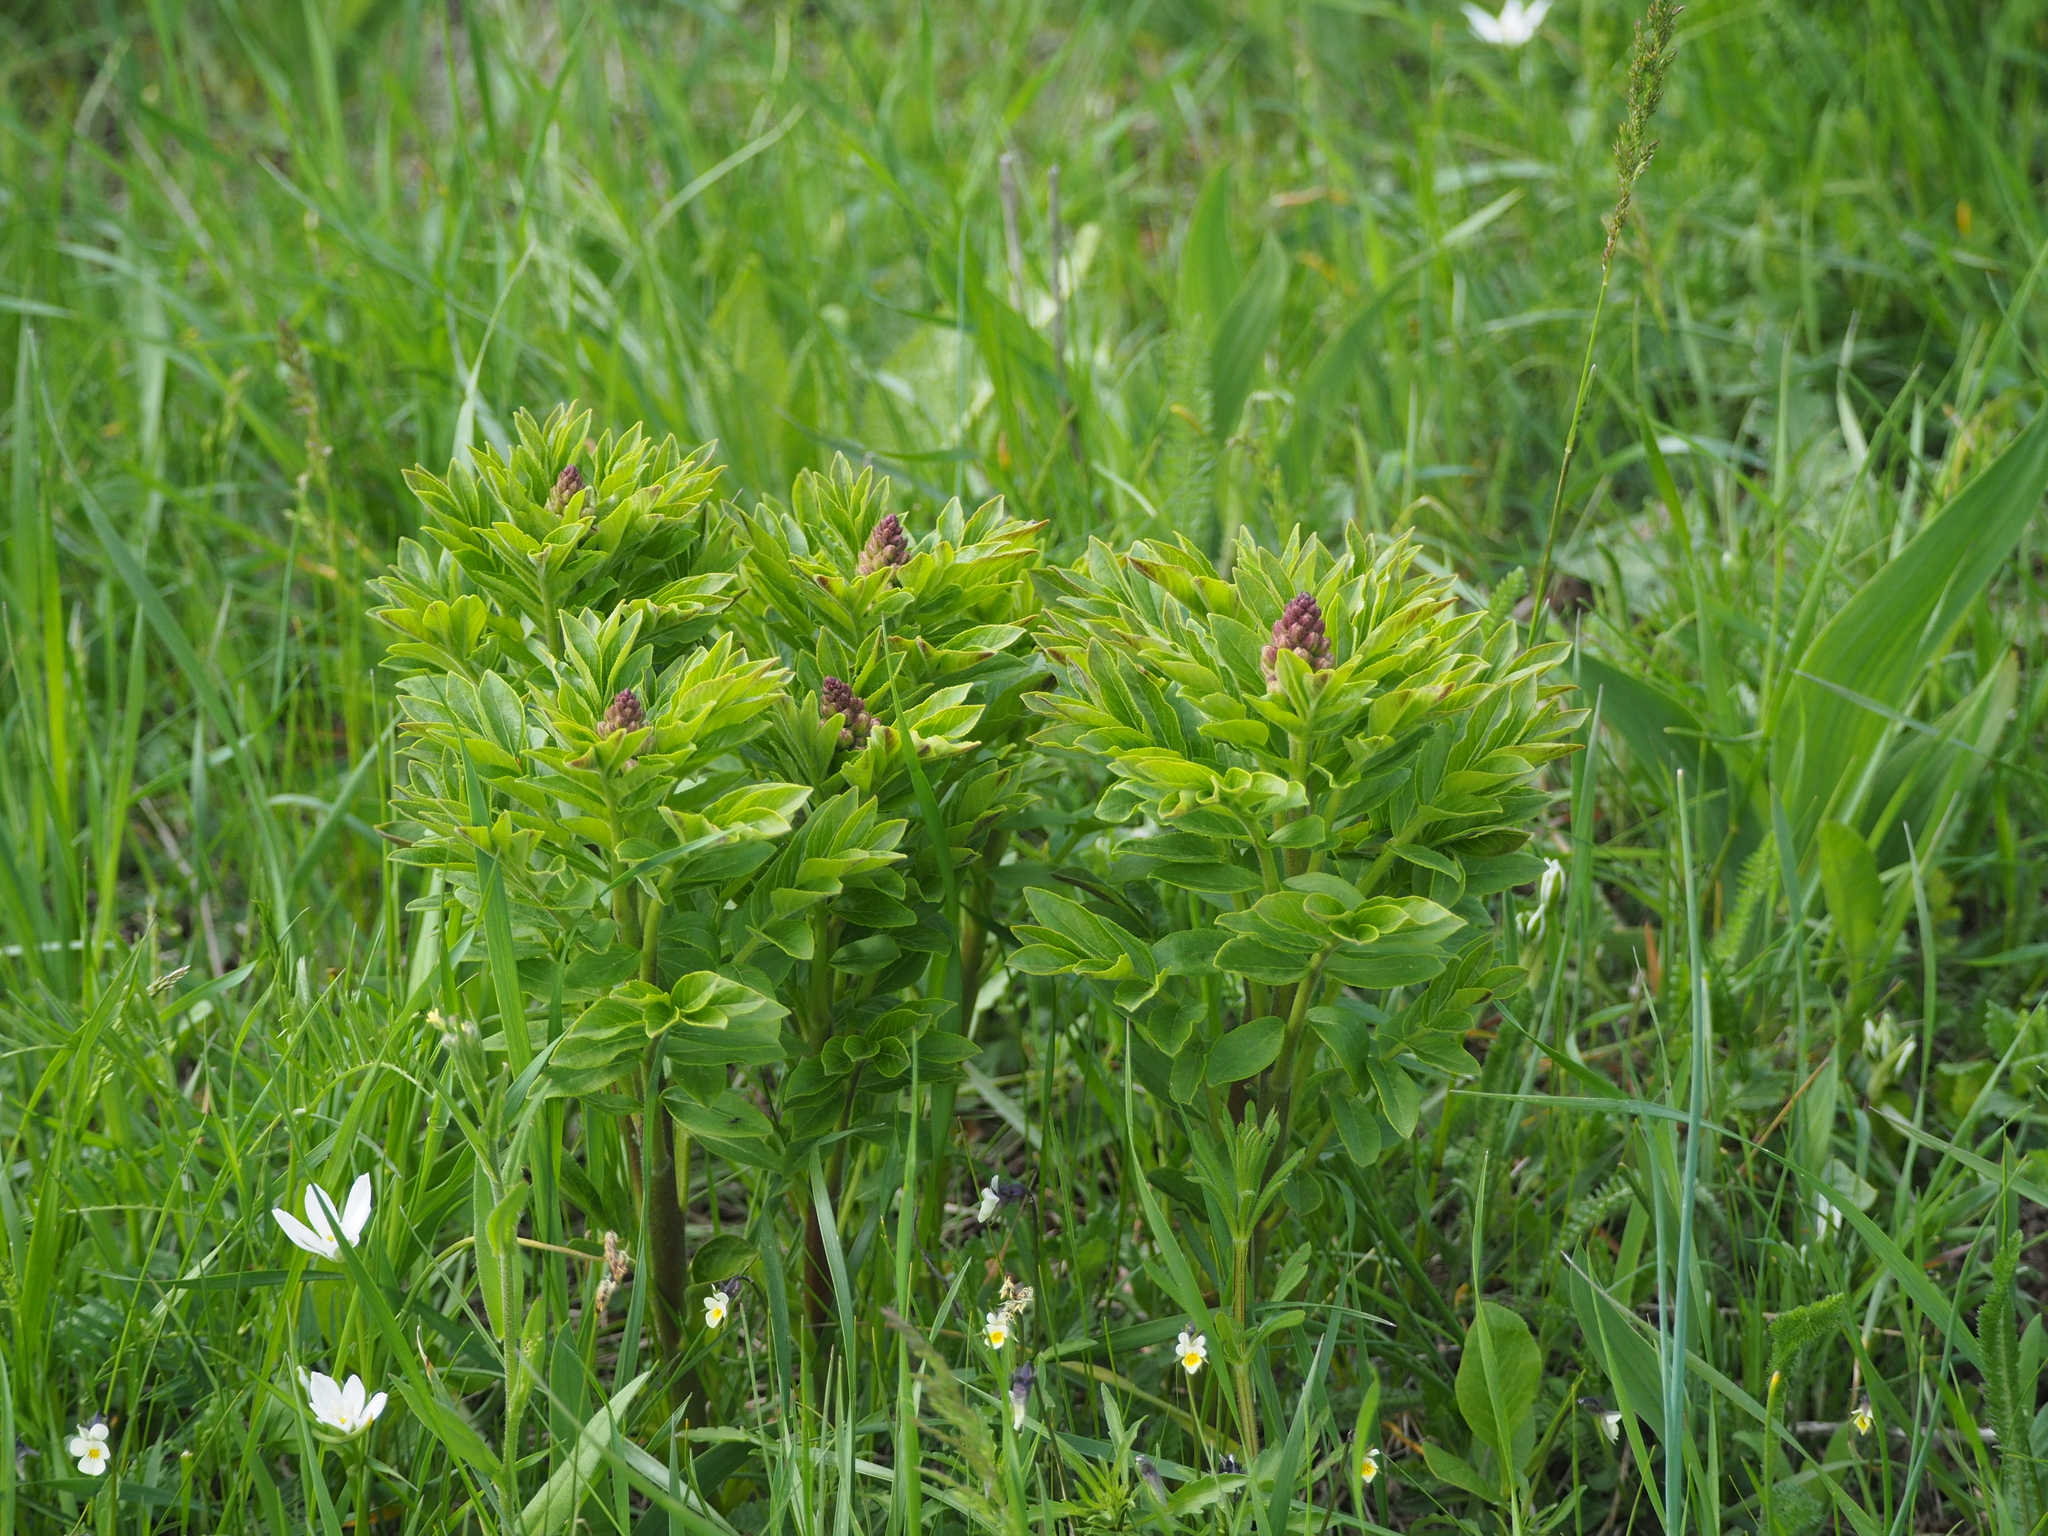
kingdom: Plantae
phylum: Tracheophyta
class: Magnoliopsida
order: Sapindales
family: Rutaceae
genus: Dictamnus
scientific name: Dictamnus albus
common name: Gasplant
